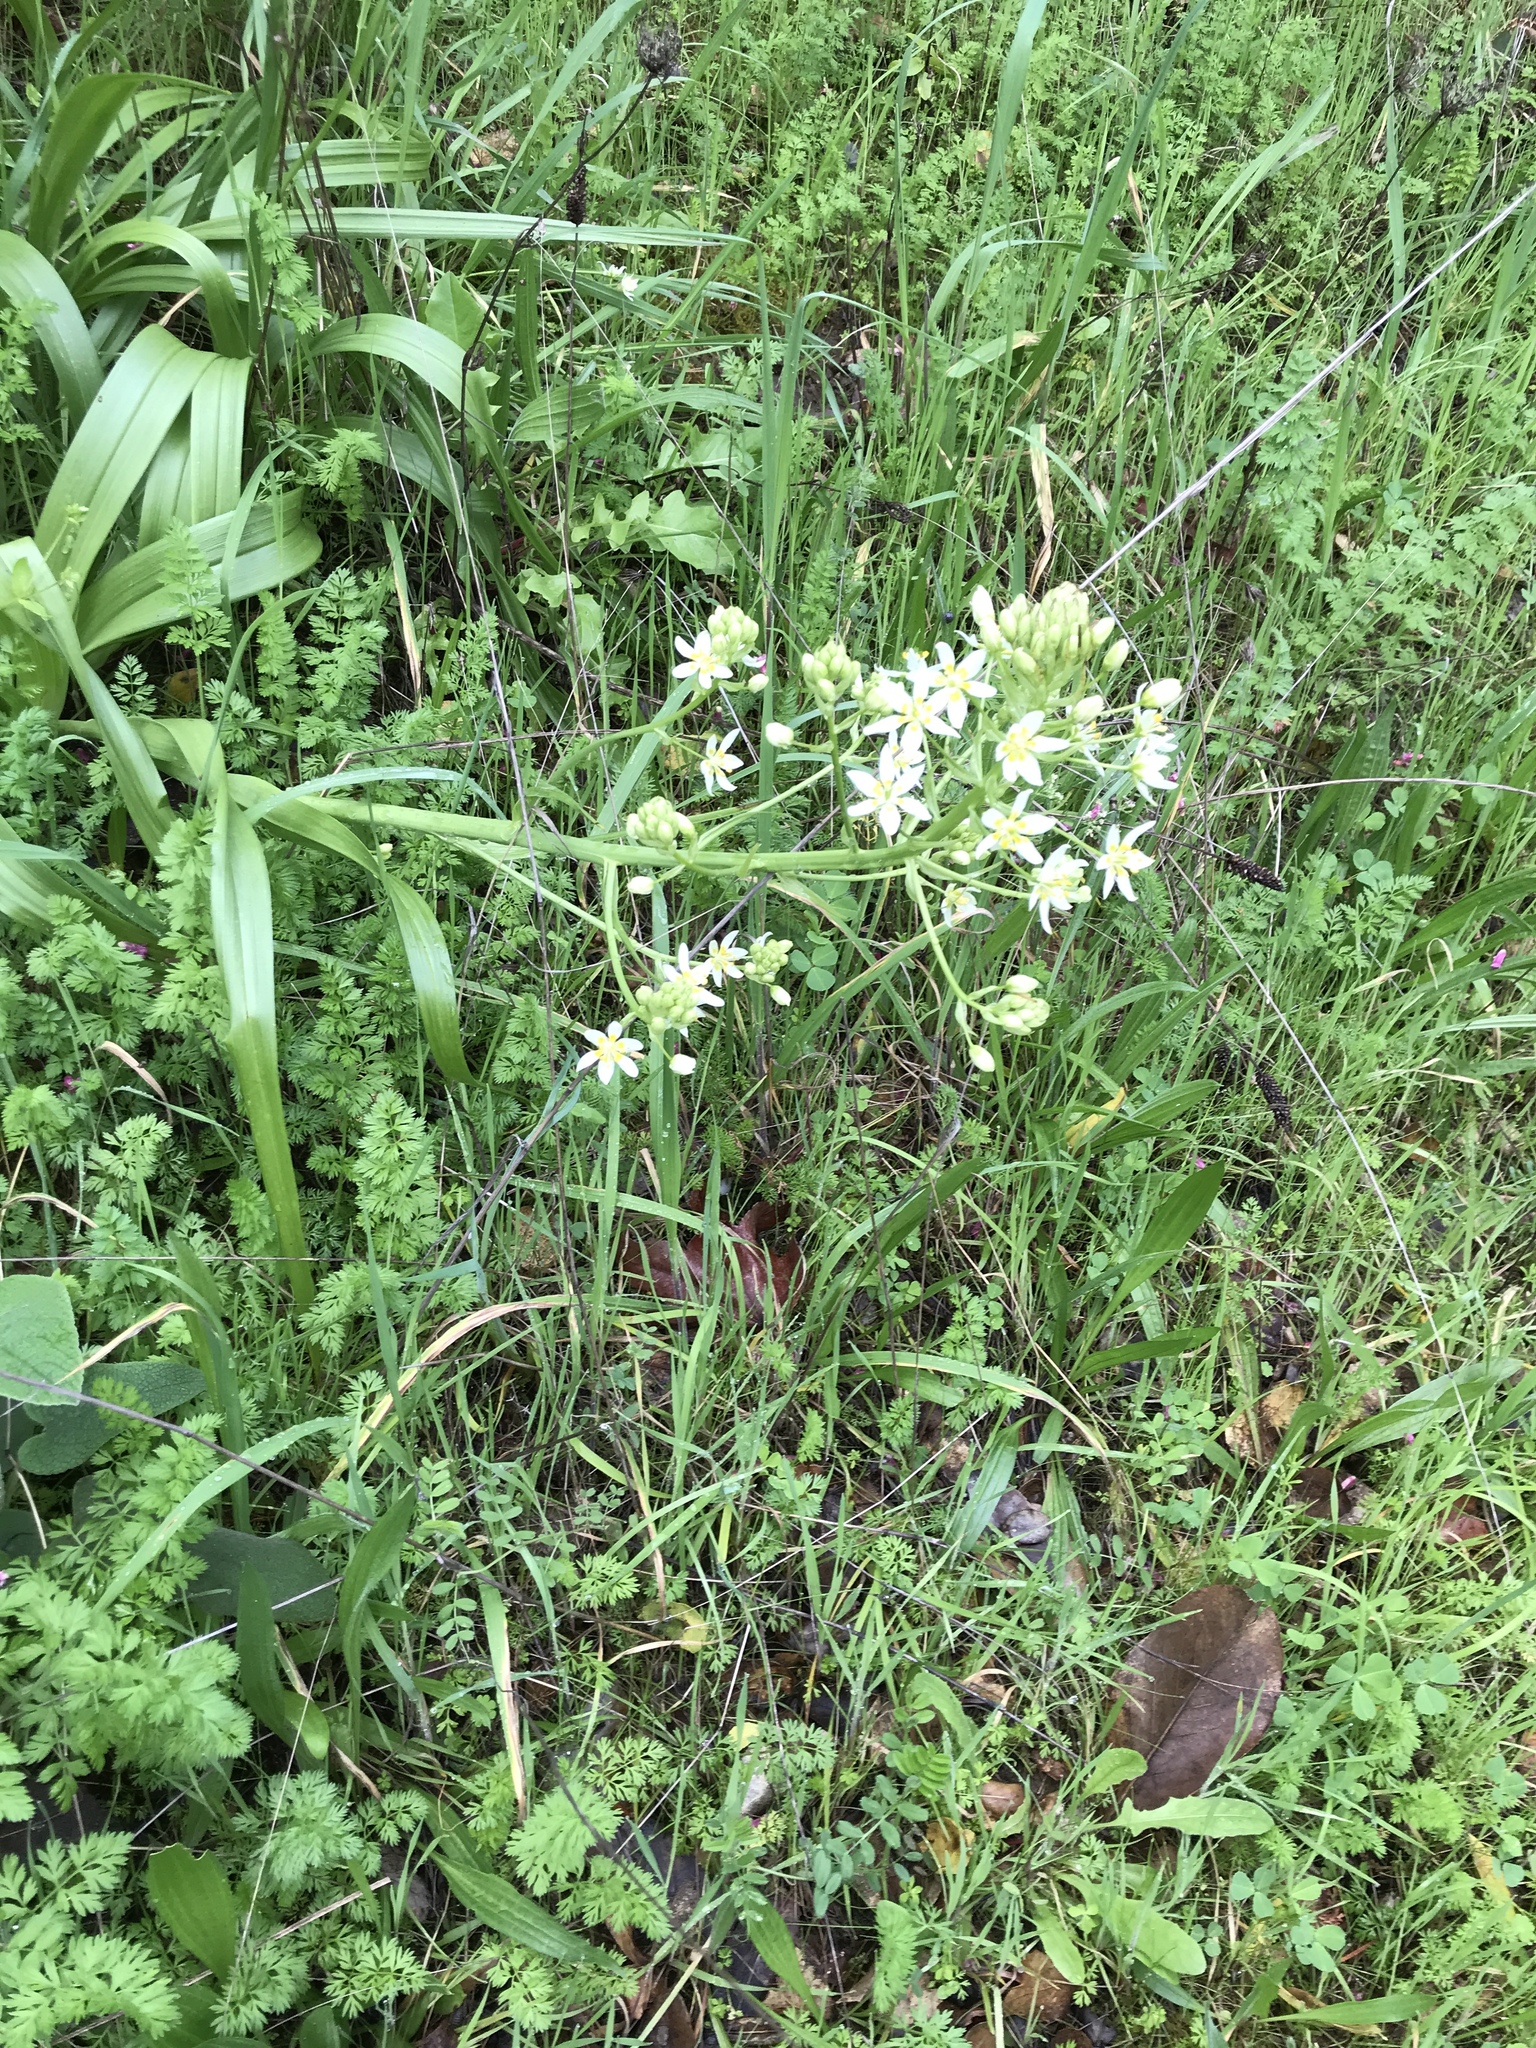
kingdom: Plantae
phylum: Tracheophyta
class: Liliopsida
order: Liliales
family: Melanthiaceae
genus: Toxicoscordion
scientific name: Toxicoscordion fremontii
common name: Fremont's death camas
